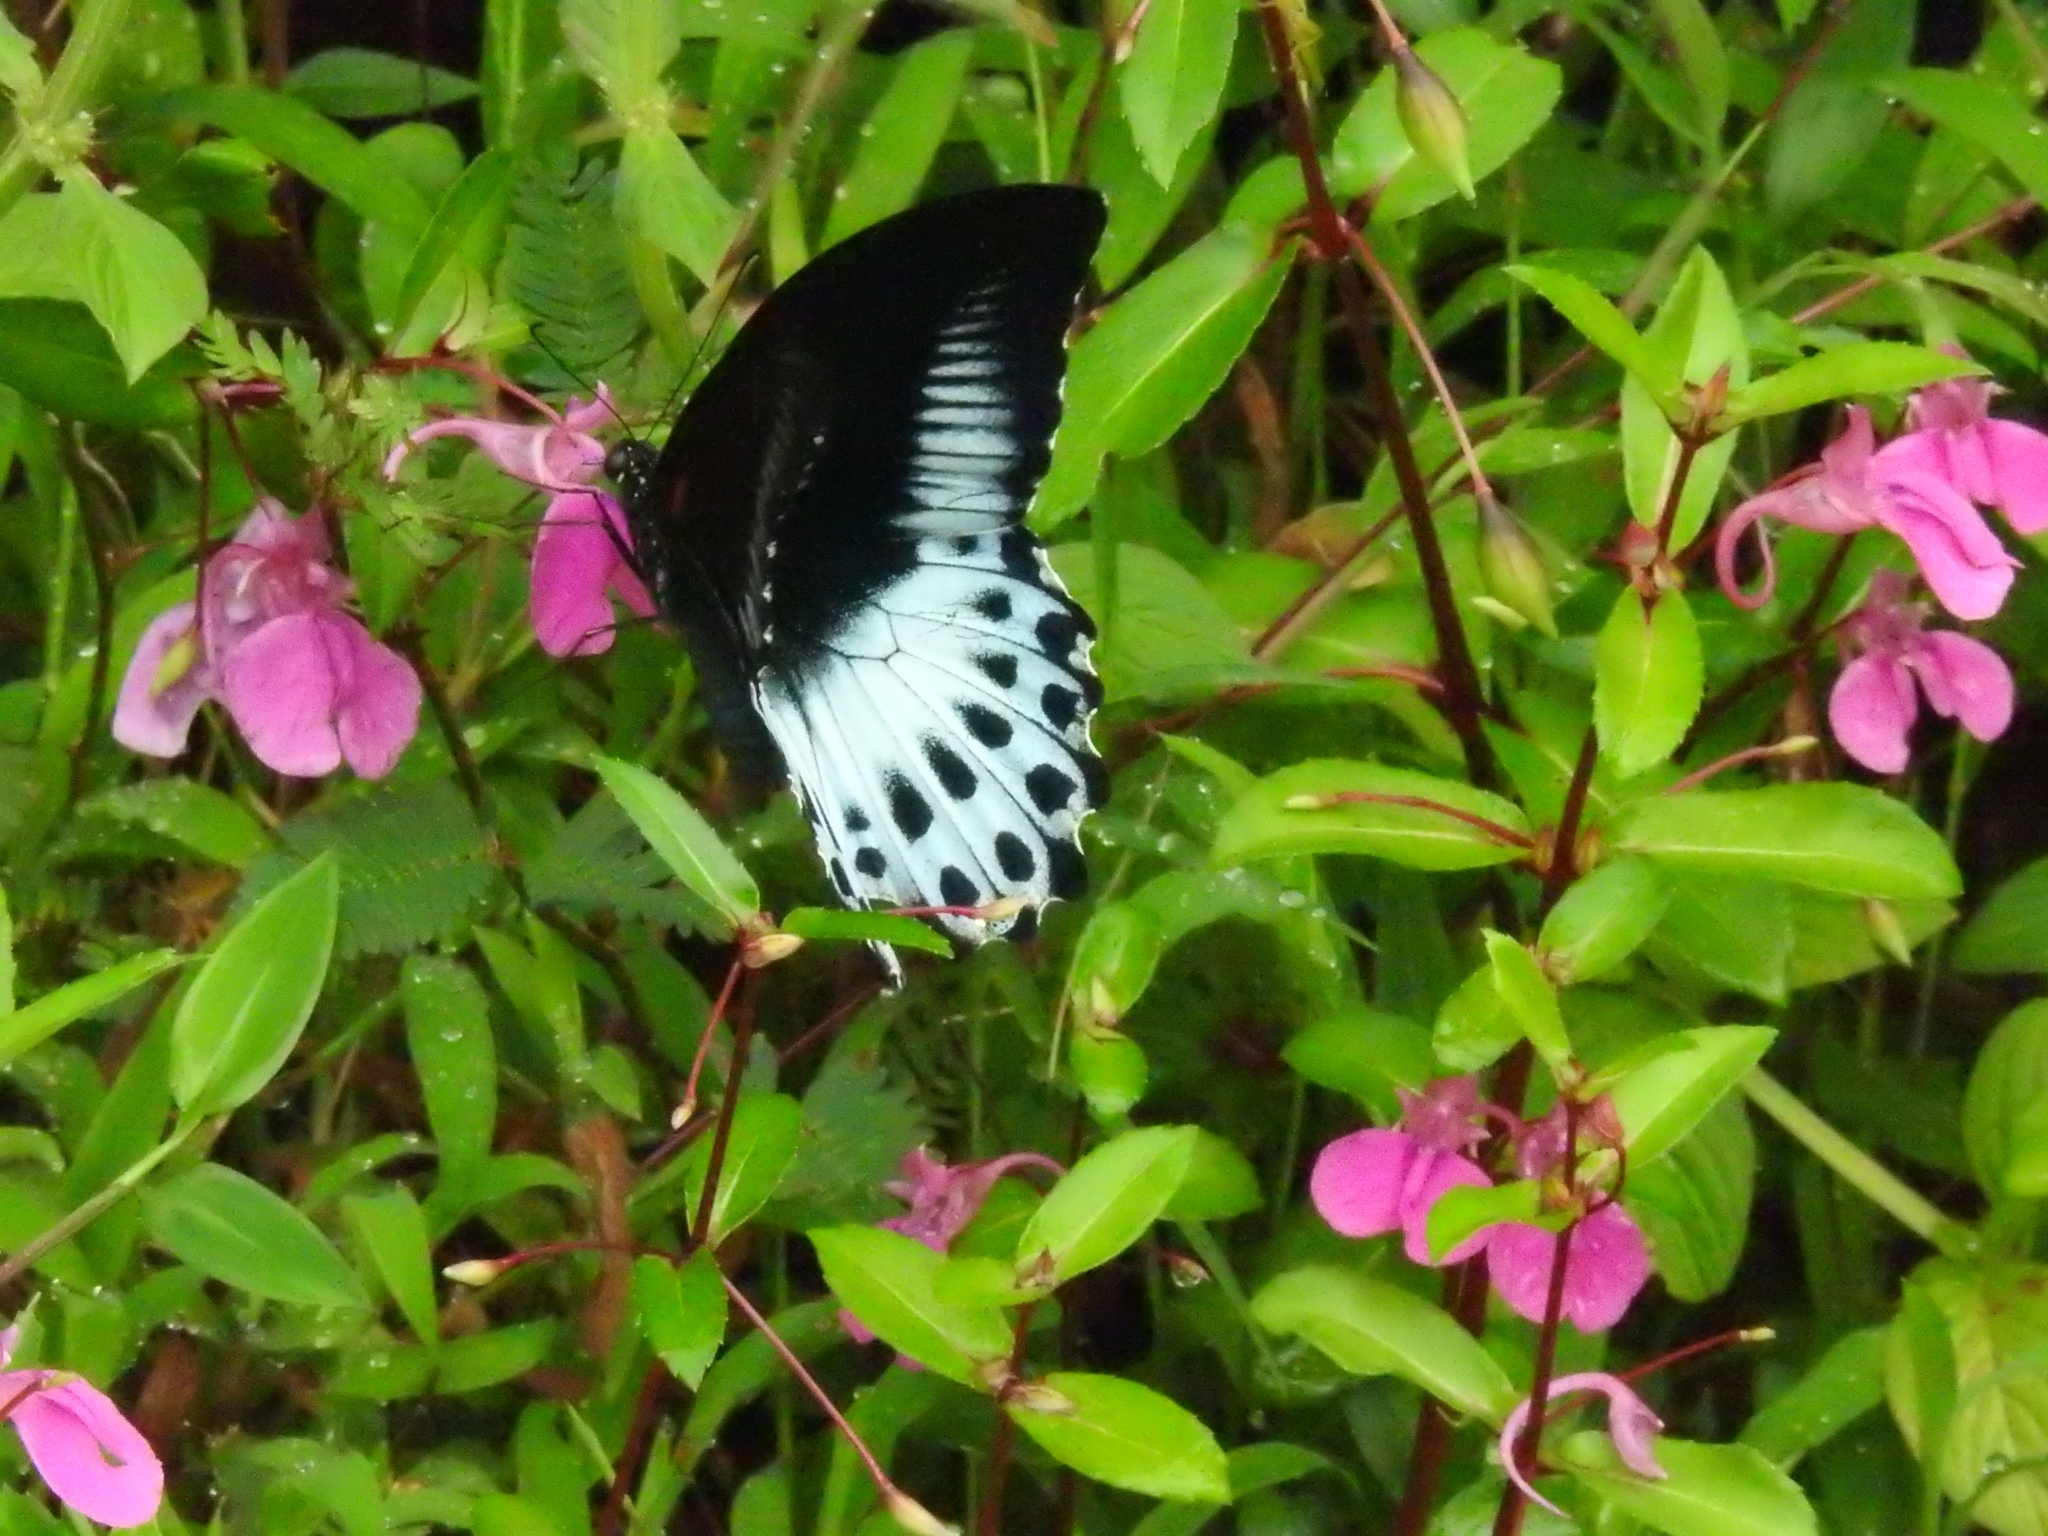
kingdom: Animalia
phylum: Arthropoda
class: Insecta
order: Lepidoptera
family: Papilionidae
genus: Papilio
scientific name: Papilio memnon
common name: Great mormon
